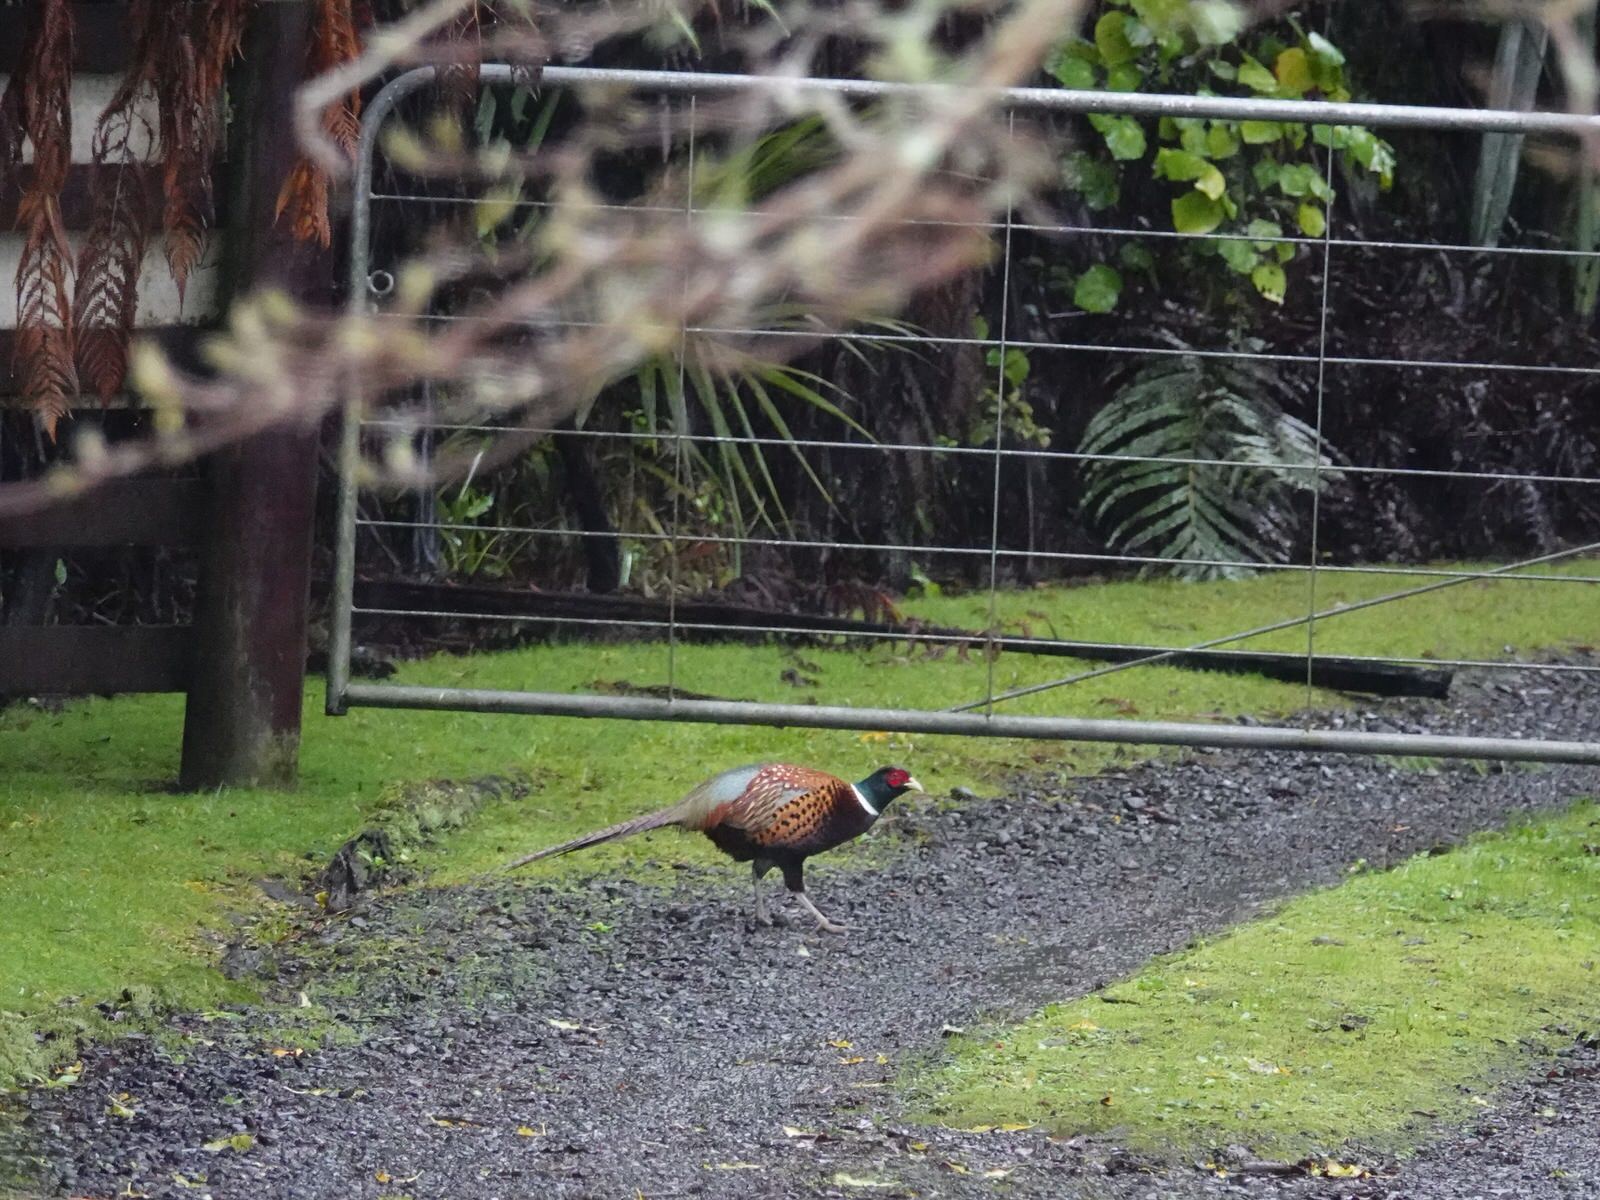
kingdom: Animalia
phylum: Chordata
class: Aves
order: Galliformes
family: Phasianidae
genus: Phasianus
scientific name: Phasianus colchicus
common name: Common pheasant
